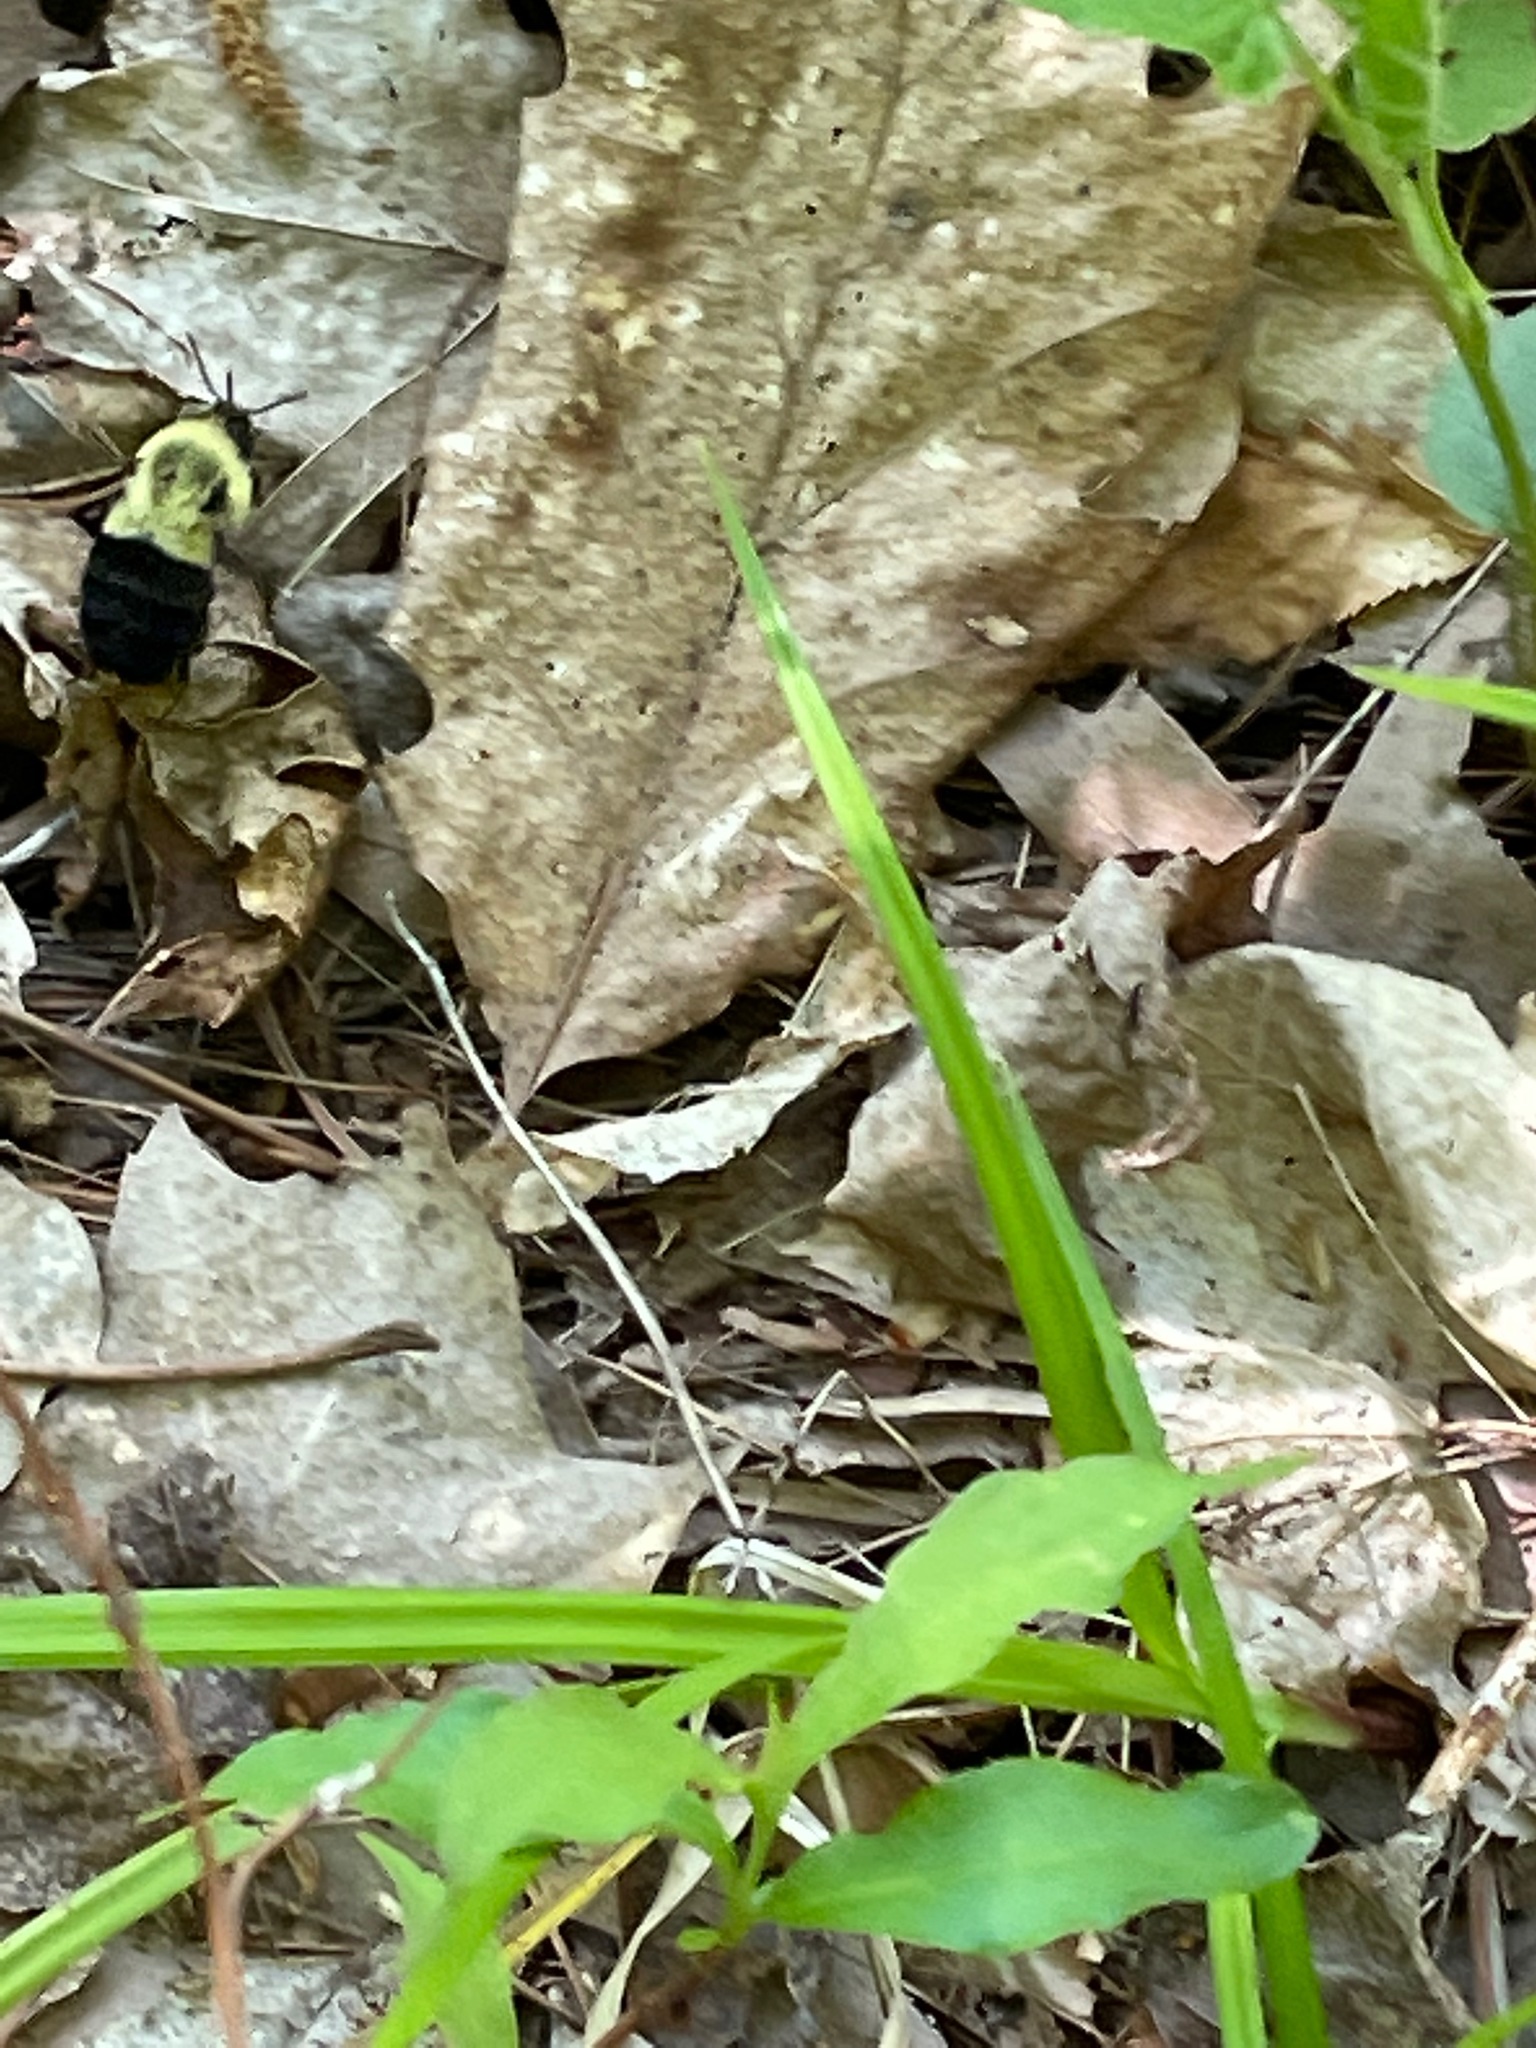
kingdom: Animalia
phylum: Arthropoda
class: Insecta
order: Hymenoptera
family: Apidae
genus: Bombus
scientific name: Bombus impatiens
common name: Common eastern bumble bee
